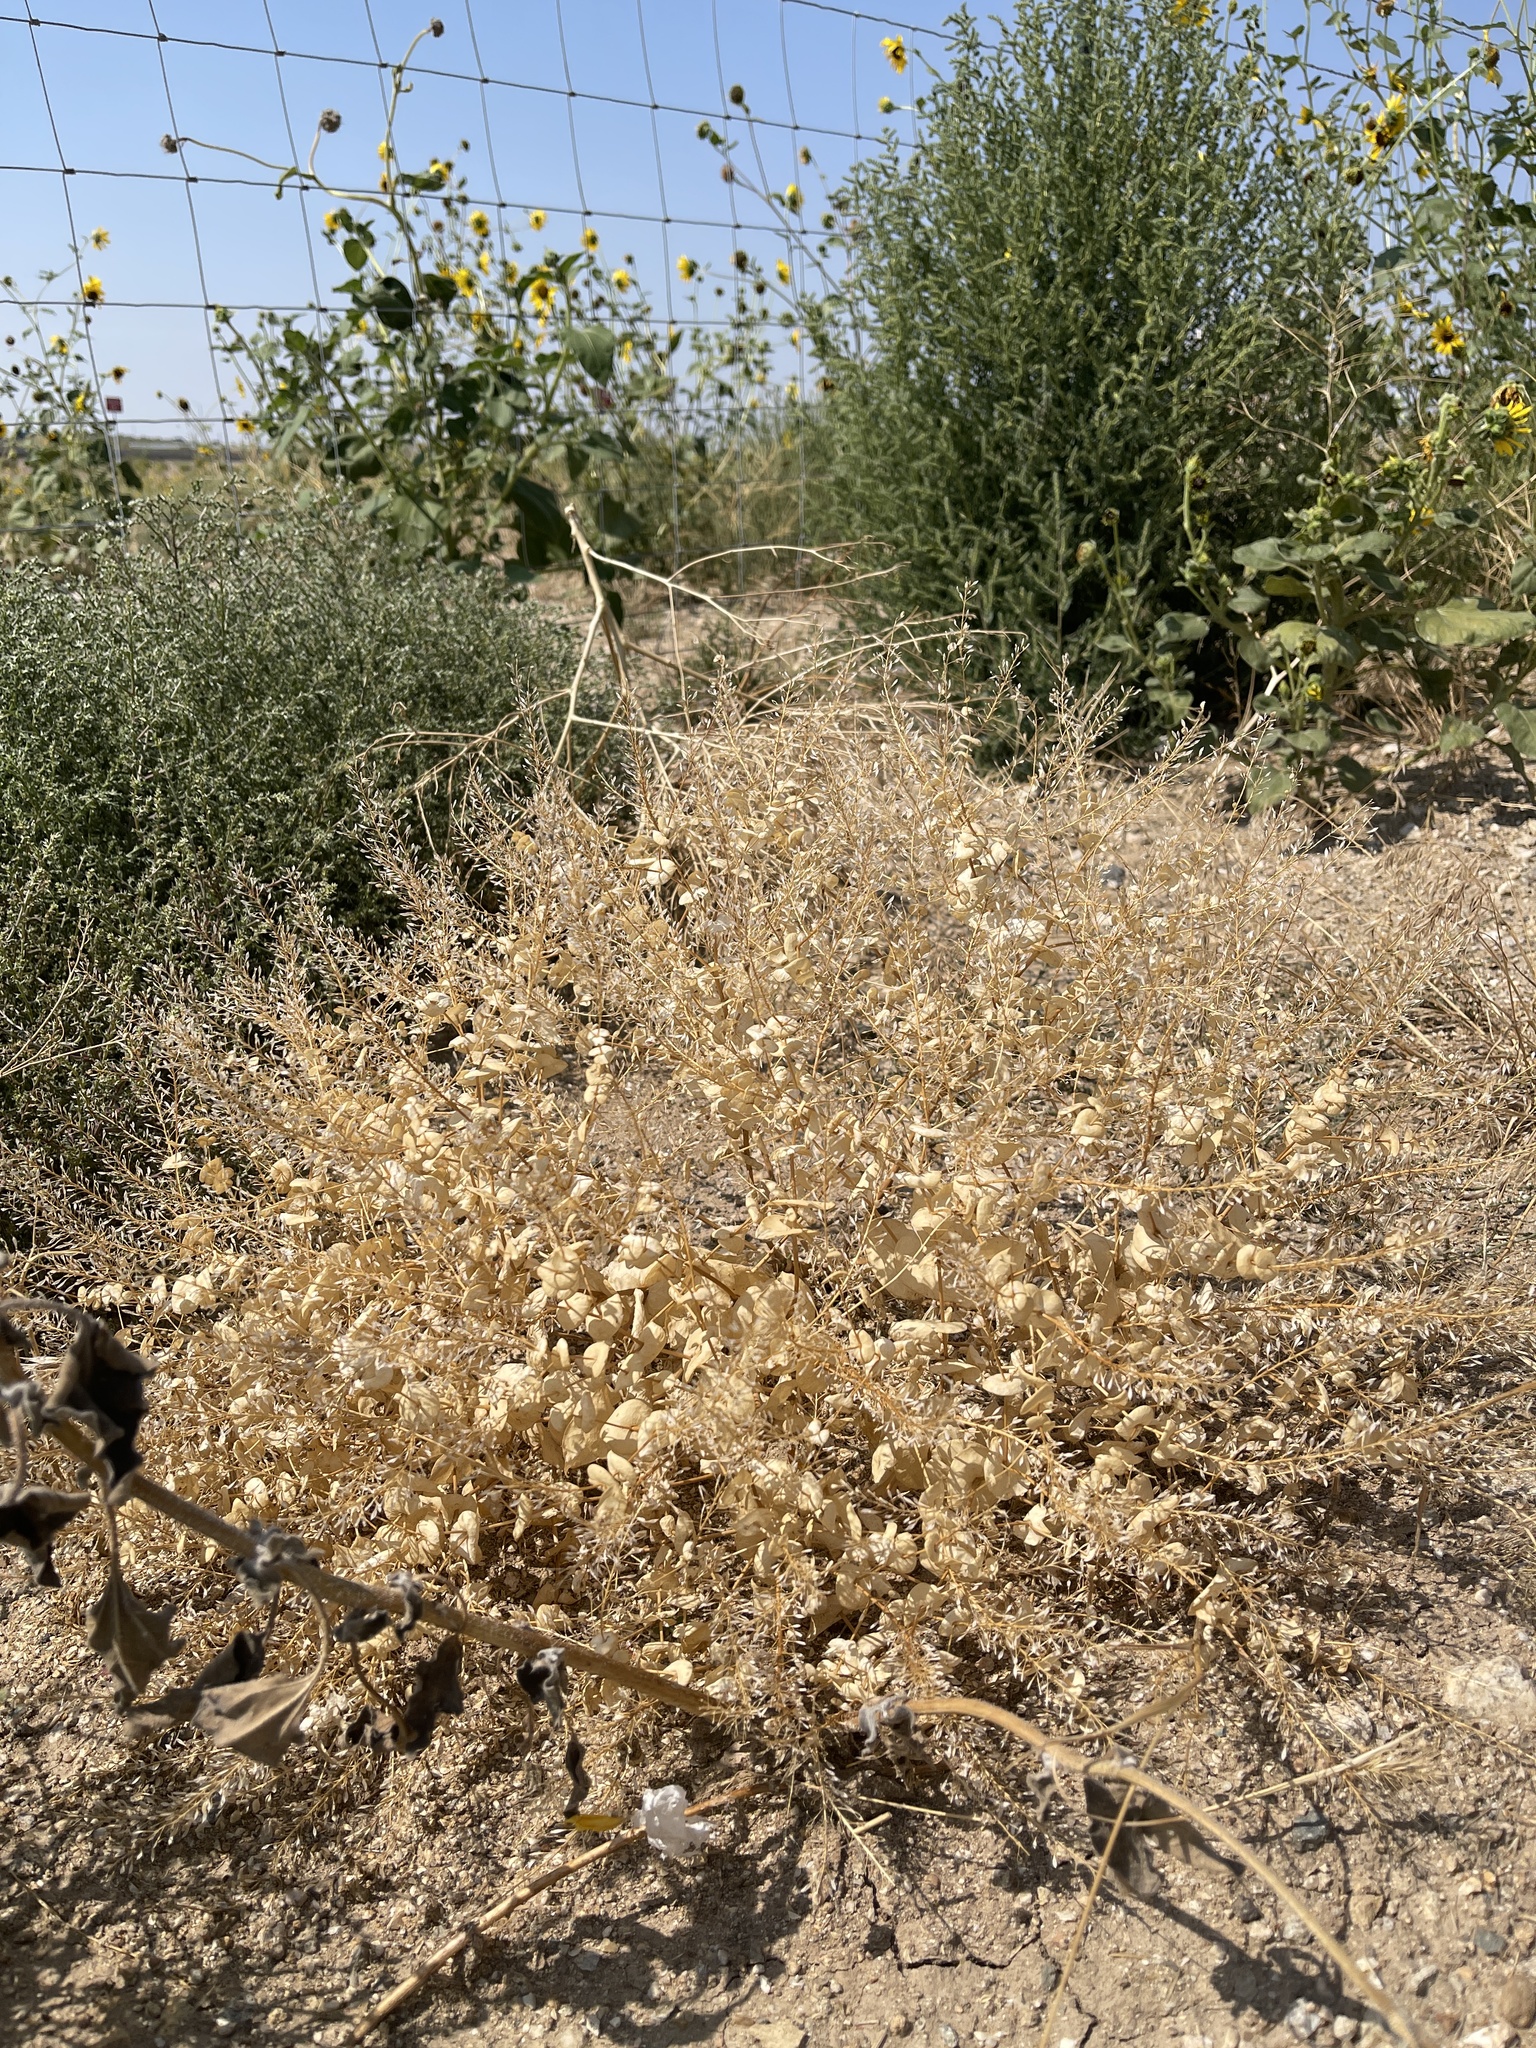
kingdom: Plantae
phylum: Tracheophyta
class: Magnoliopsida
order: Brassicales
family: Brassicaceae
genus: Lepidium
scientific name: Lepidium perfoliatum
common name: Perfoliate pepperwort
